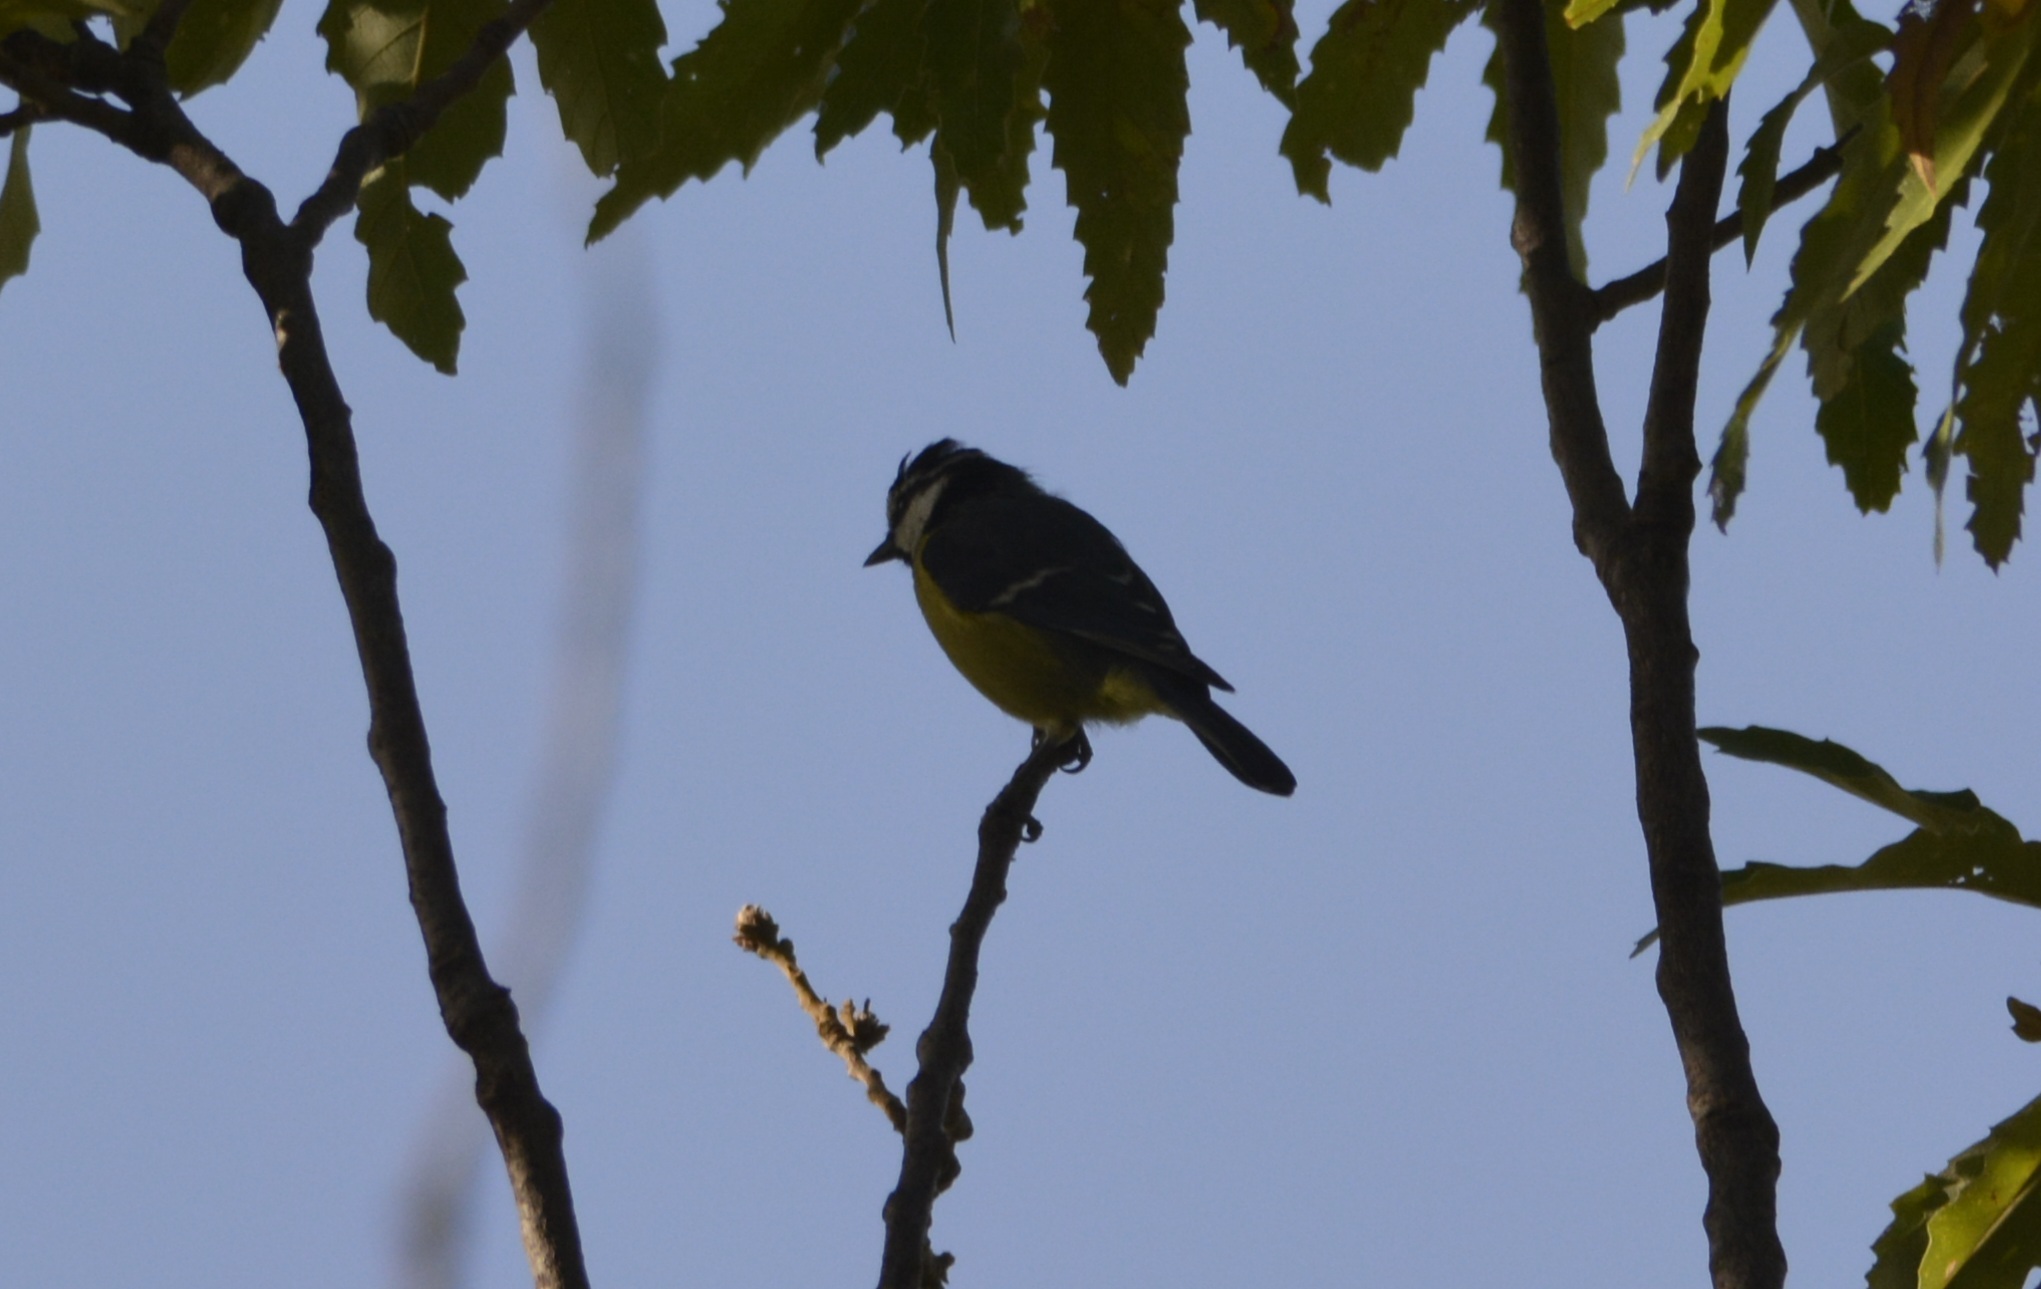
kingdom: Animalia
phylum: Chordata
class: Aves
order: Passeriformes
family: Paridae
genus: Cyanistes
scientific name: Cyanistes teneriffae
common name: African blue tit
